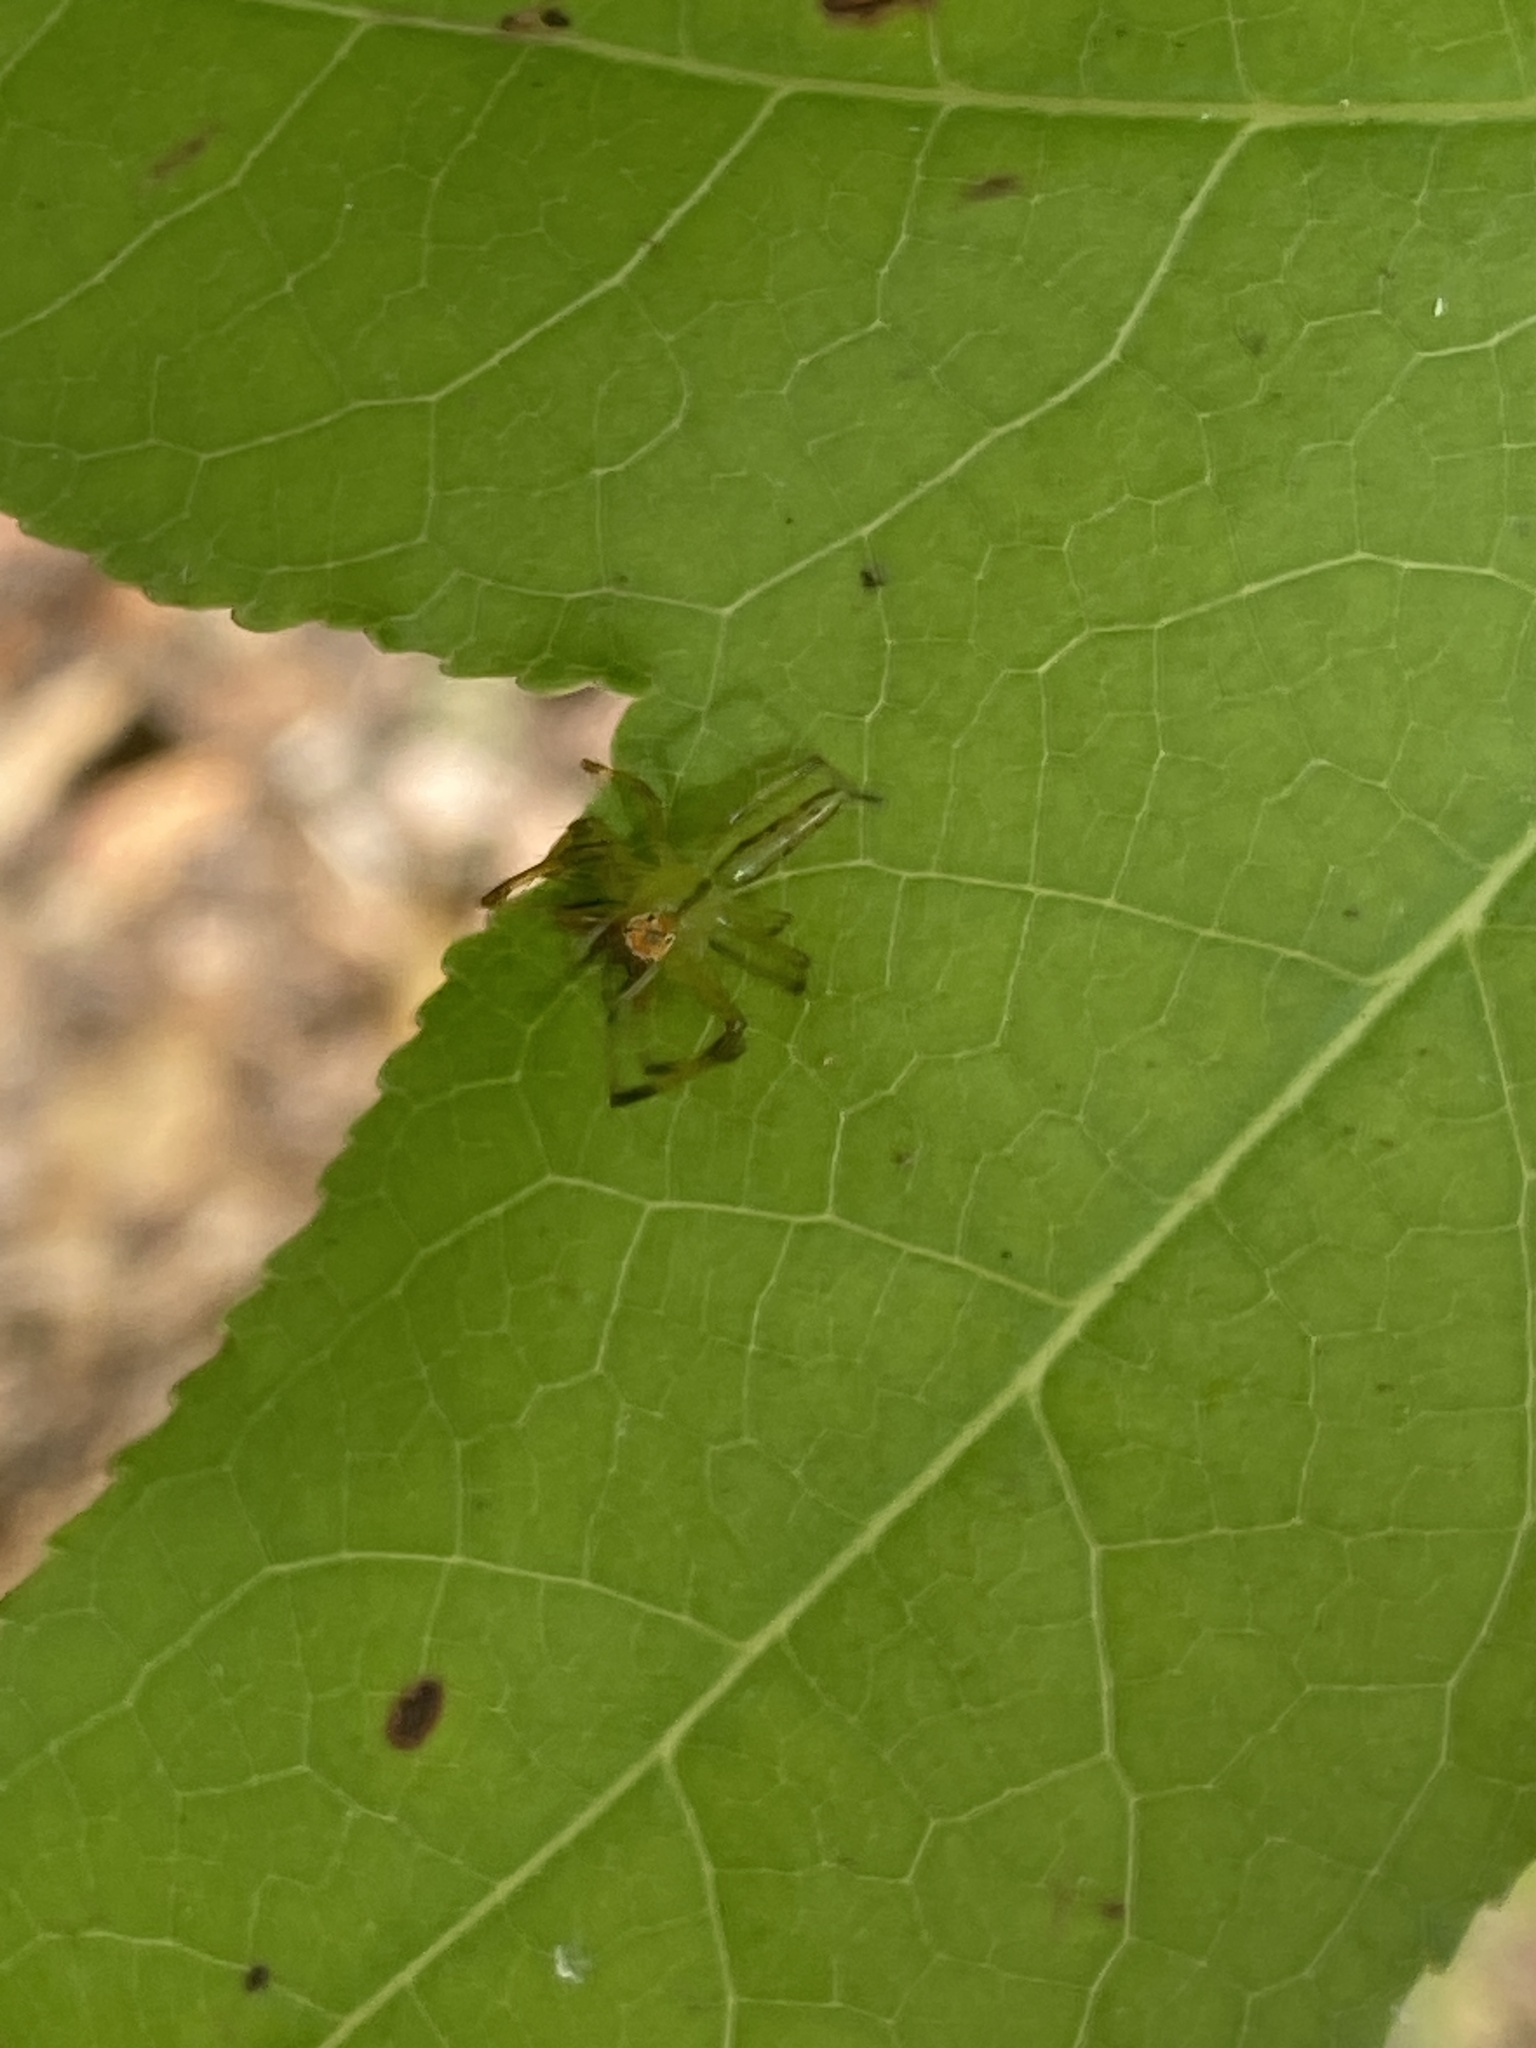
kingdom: Animalia
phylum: Arthropoda
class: Arachnida
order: Araneae
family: Salticidae
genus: Lyssomanes
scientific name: Lyssomanes viridis
